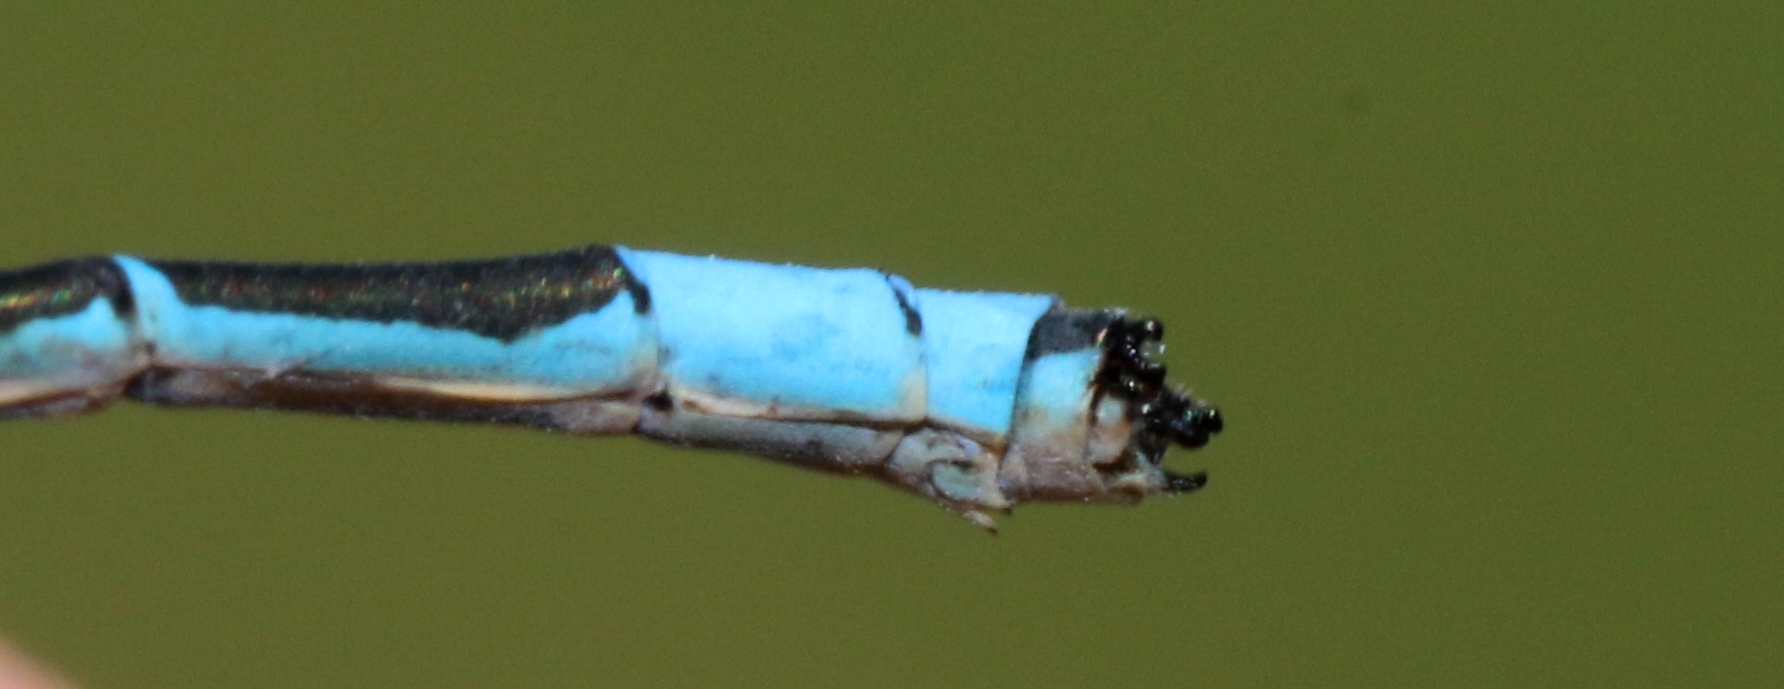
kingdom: Animalia
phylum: Arthropoda
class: Insecta
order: Odonata
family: Coenagrionidae
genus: Enallagma
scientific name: Enallagma ebrium
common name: Marsh bluet
